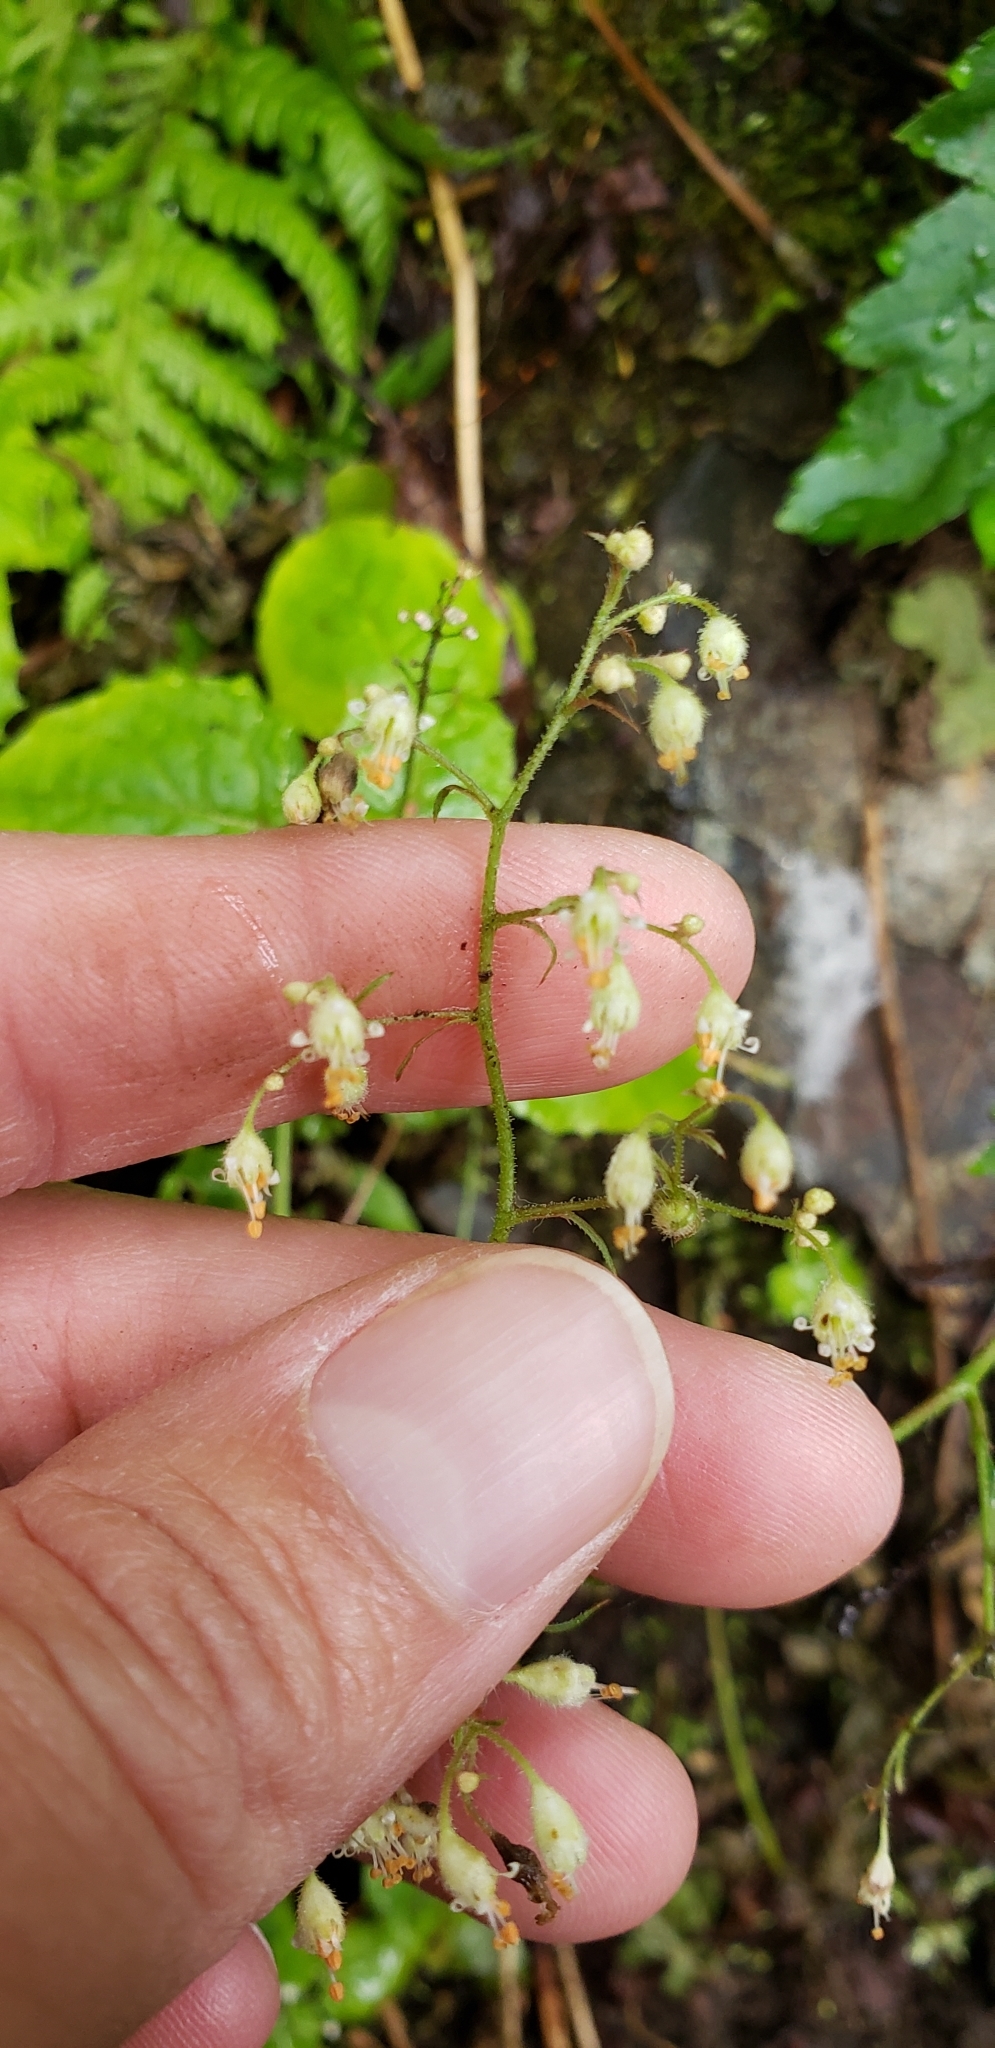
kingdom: Plantae
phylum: Tracheophyta
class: Magnoliopsida
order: Saxifragales
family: Saxifragaceae
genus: Heuchera
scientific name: Heuchera glabra
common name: Alpine alumroot
